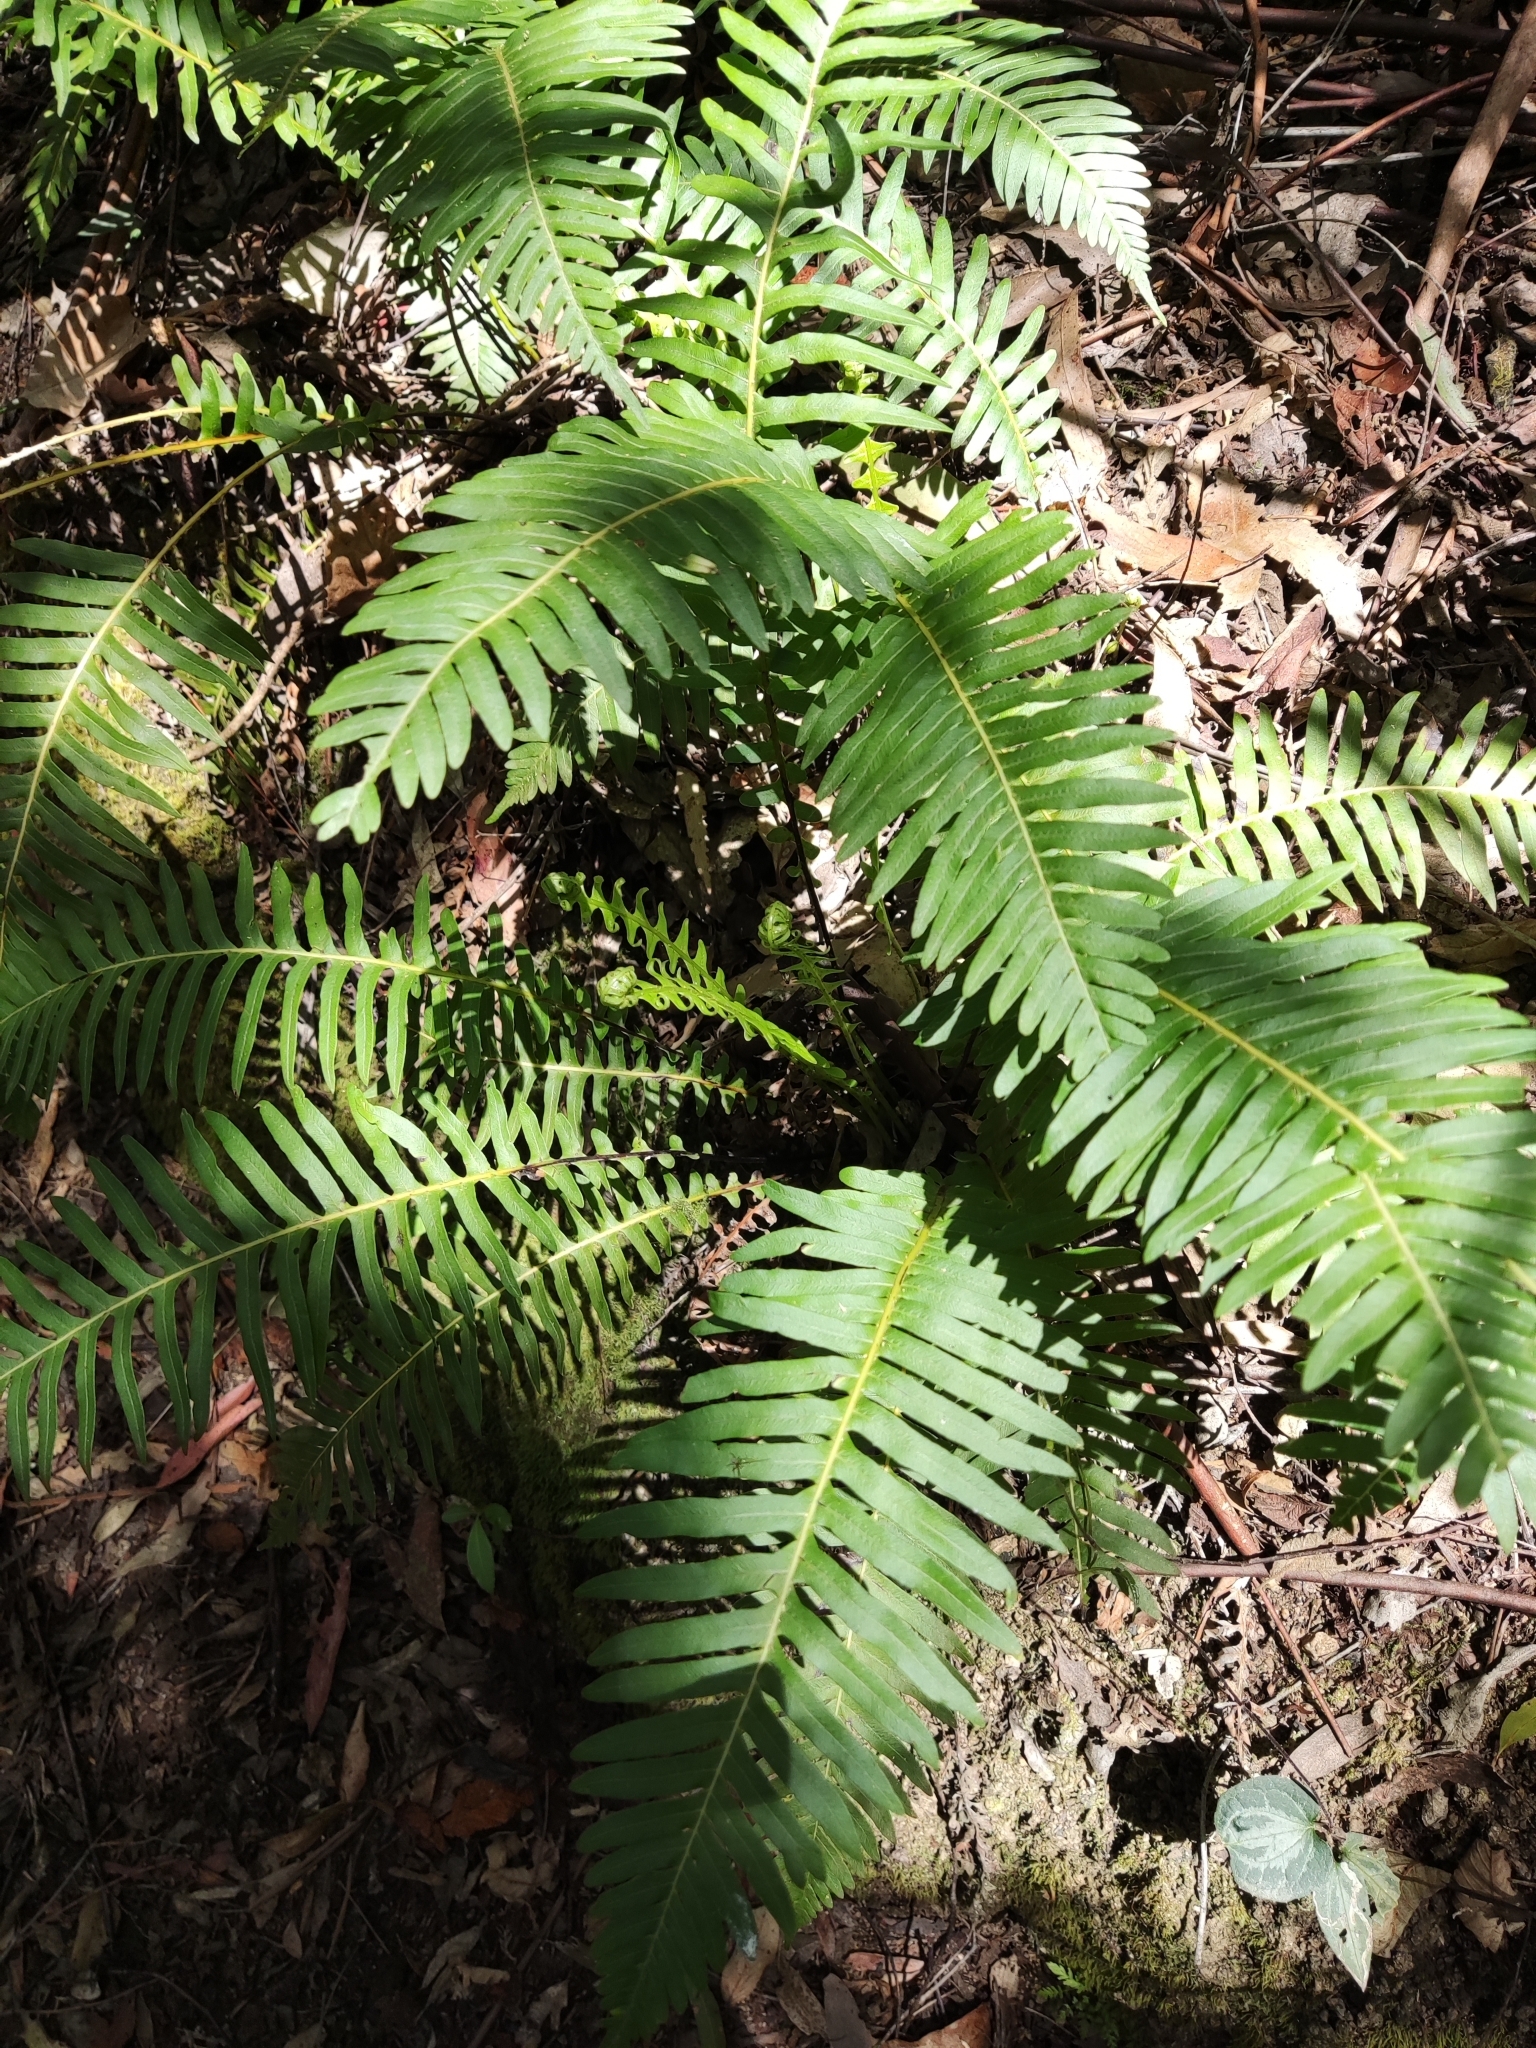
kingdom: Plantae
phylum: Tracheophyta
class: Polypodiopsida
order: Polypodiales
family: Blechnaceae
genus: Lomaria
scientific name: Lomaria nuda
